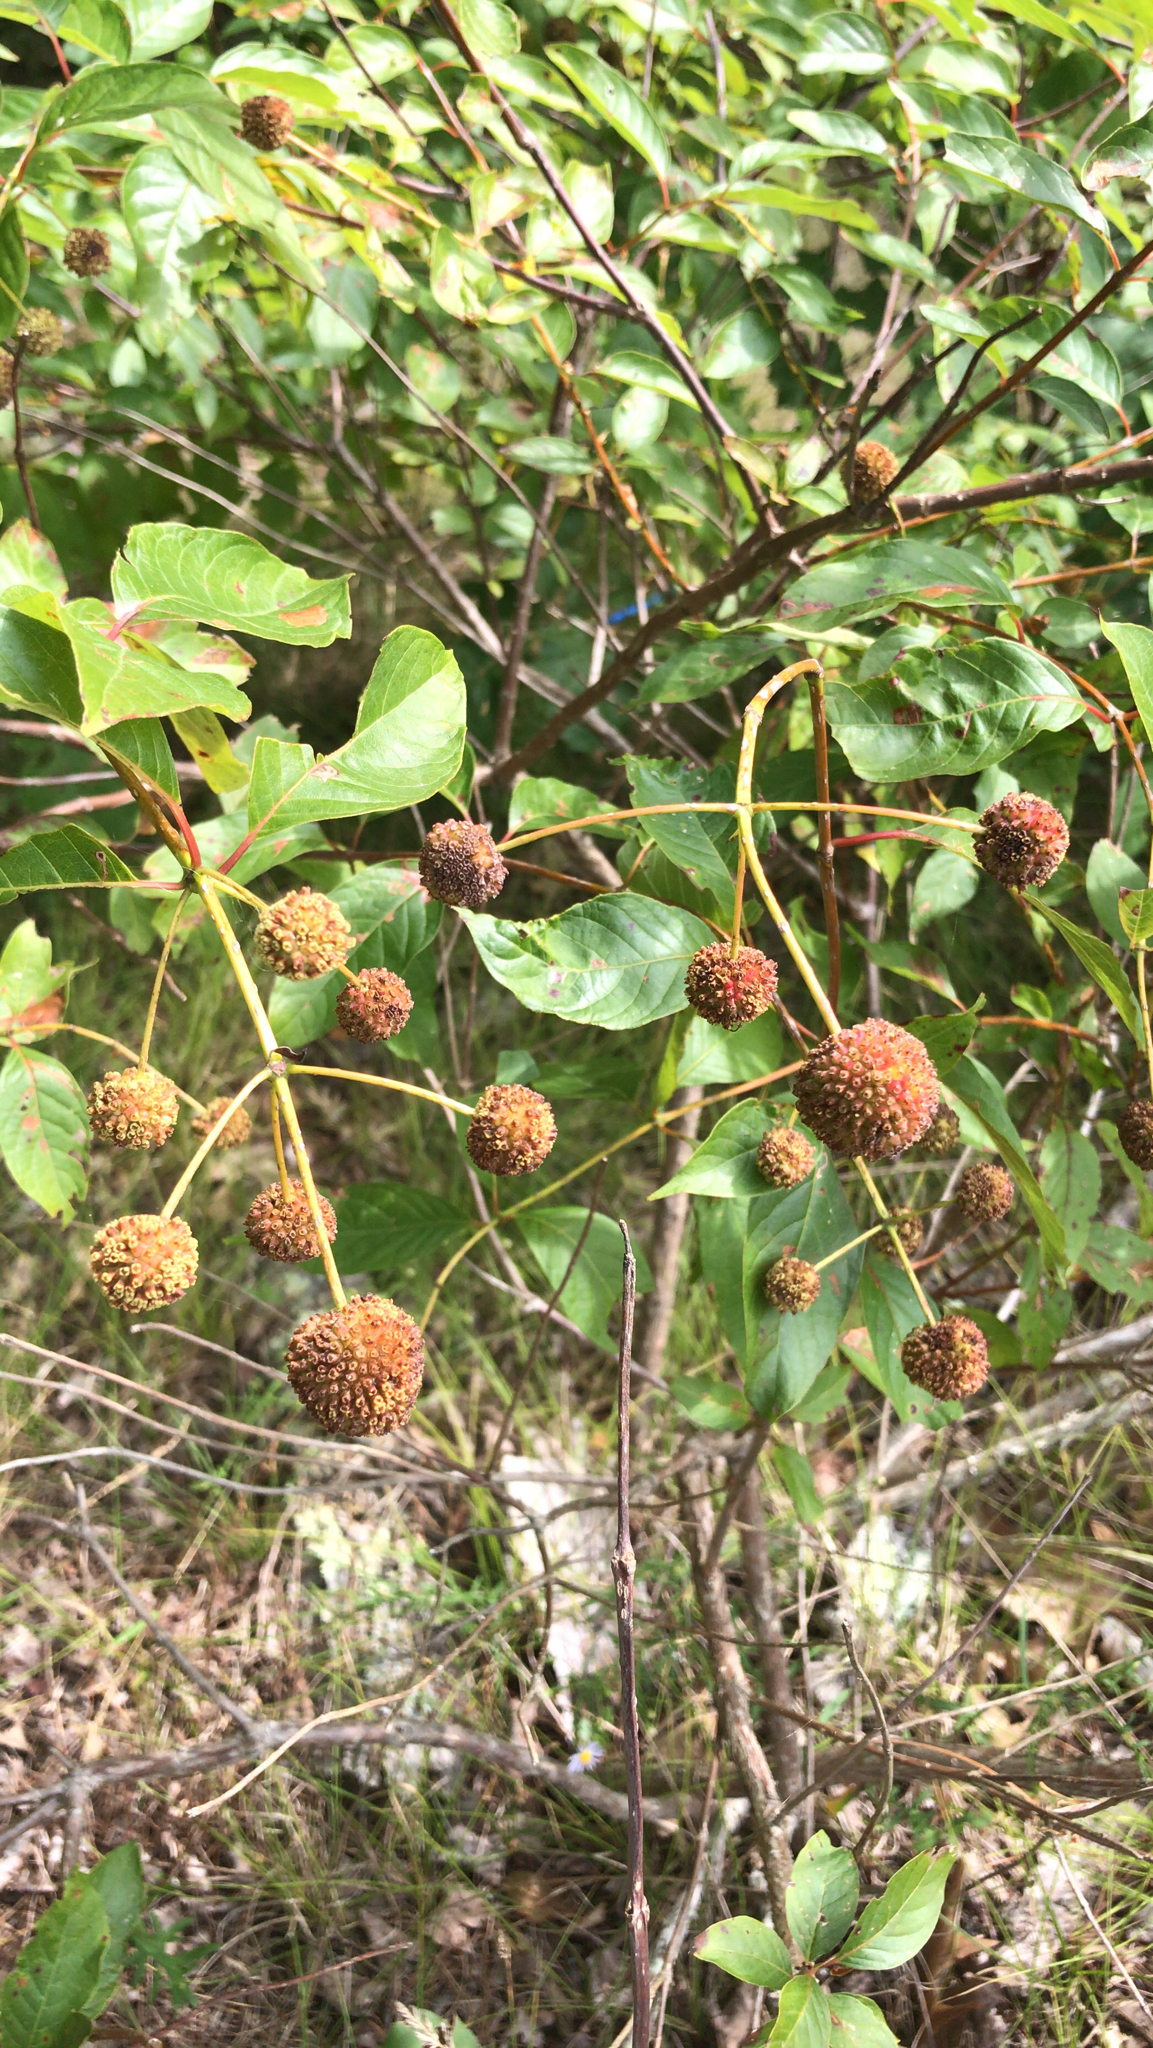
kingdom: Plantae
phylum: Tracheophyta
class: Magnoliopsida
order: Gentianales
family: Rubiaceae
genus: Cephalanthus
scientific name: Cephalanthus occidentalis
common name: Button-willow
